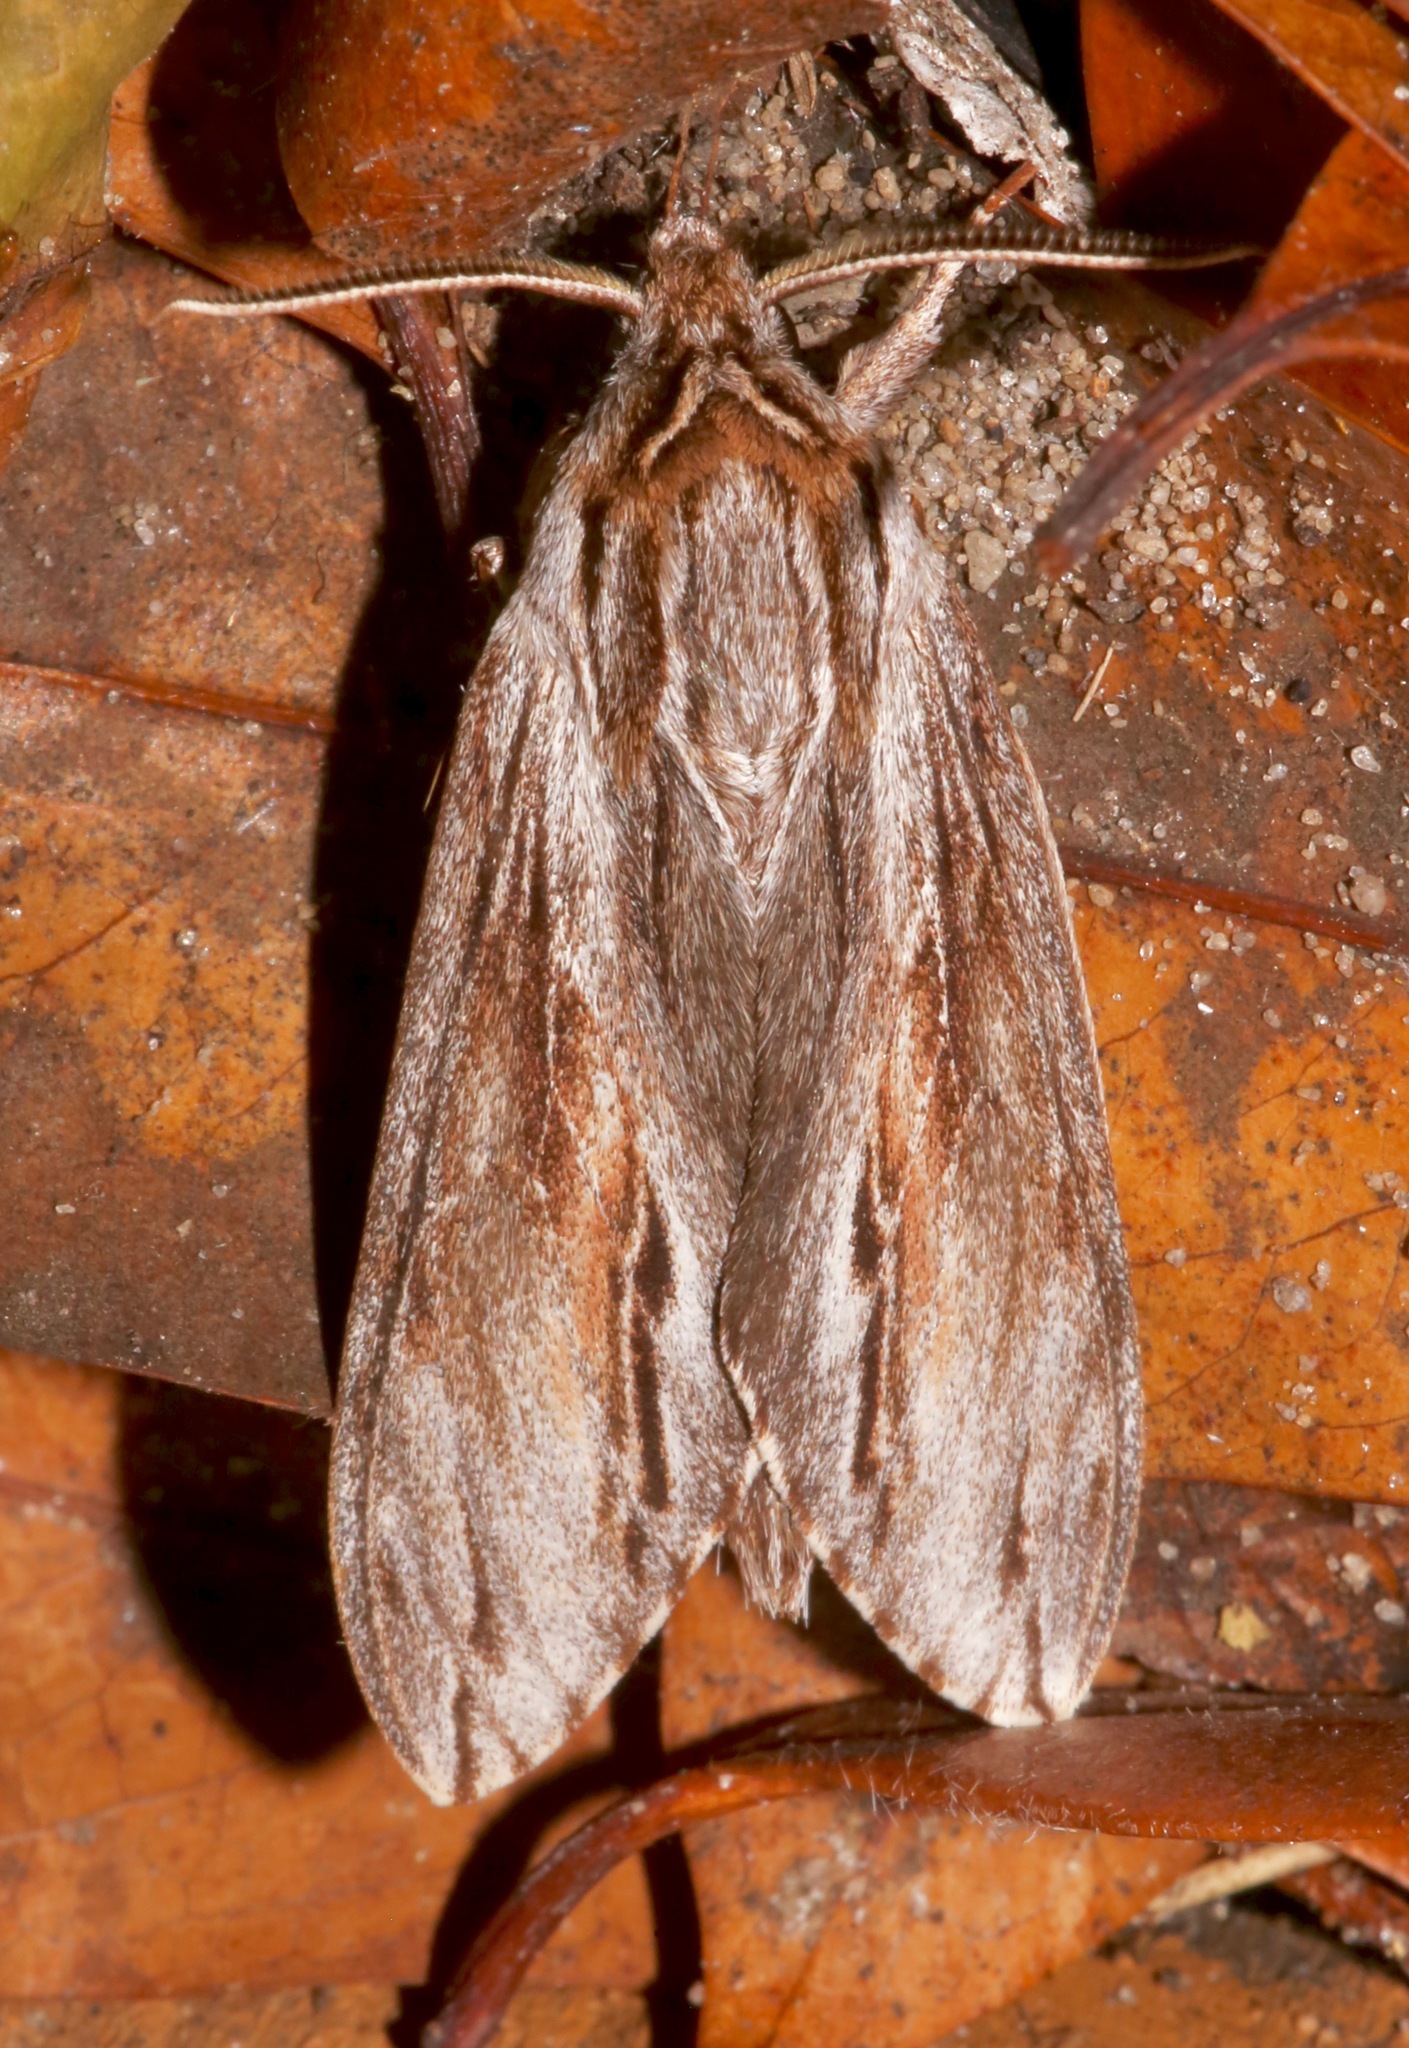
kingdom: Animalia
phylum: Arthropoda
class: Insecta
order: Lepidoptera
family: Sphingidae
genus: Isoparce
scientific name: Isoparce cupressi
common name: Cypress sphinx
